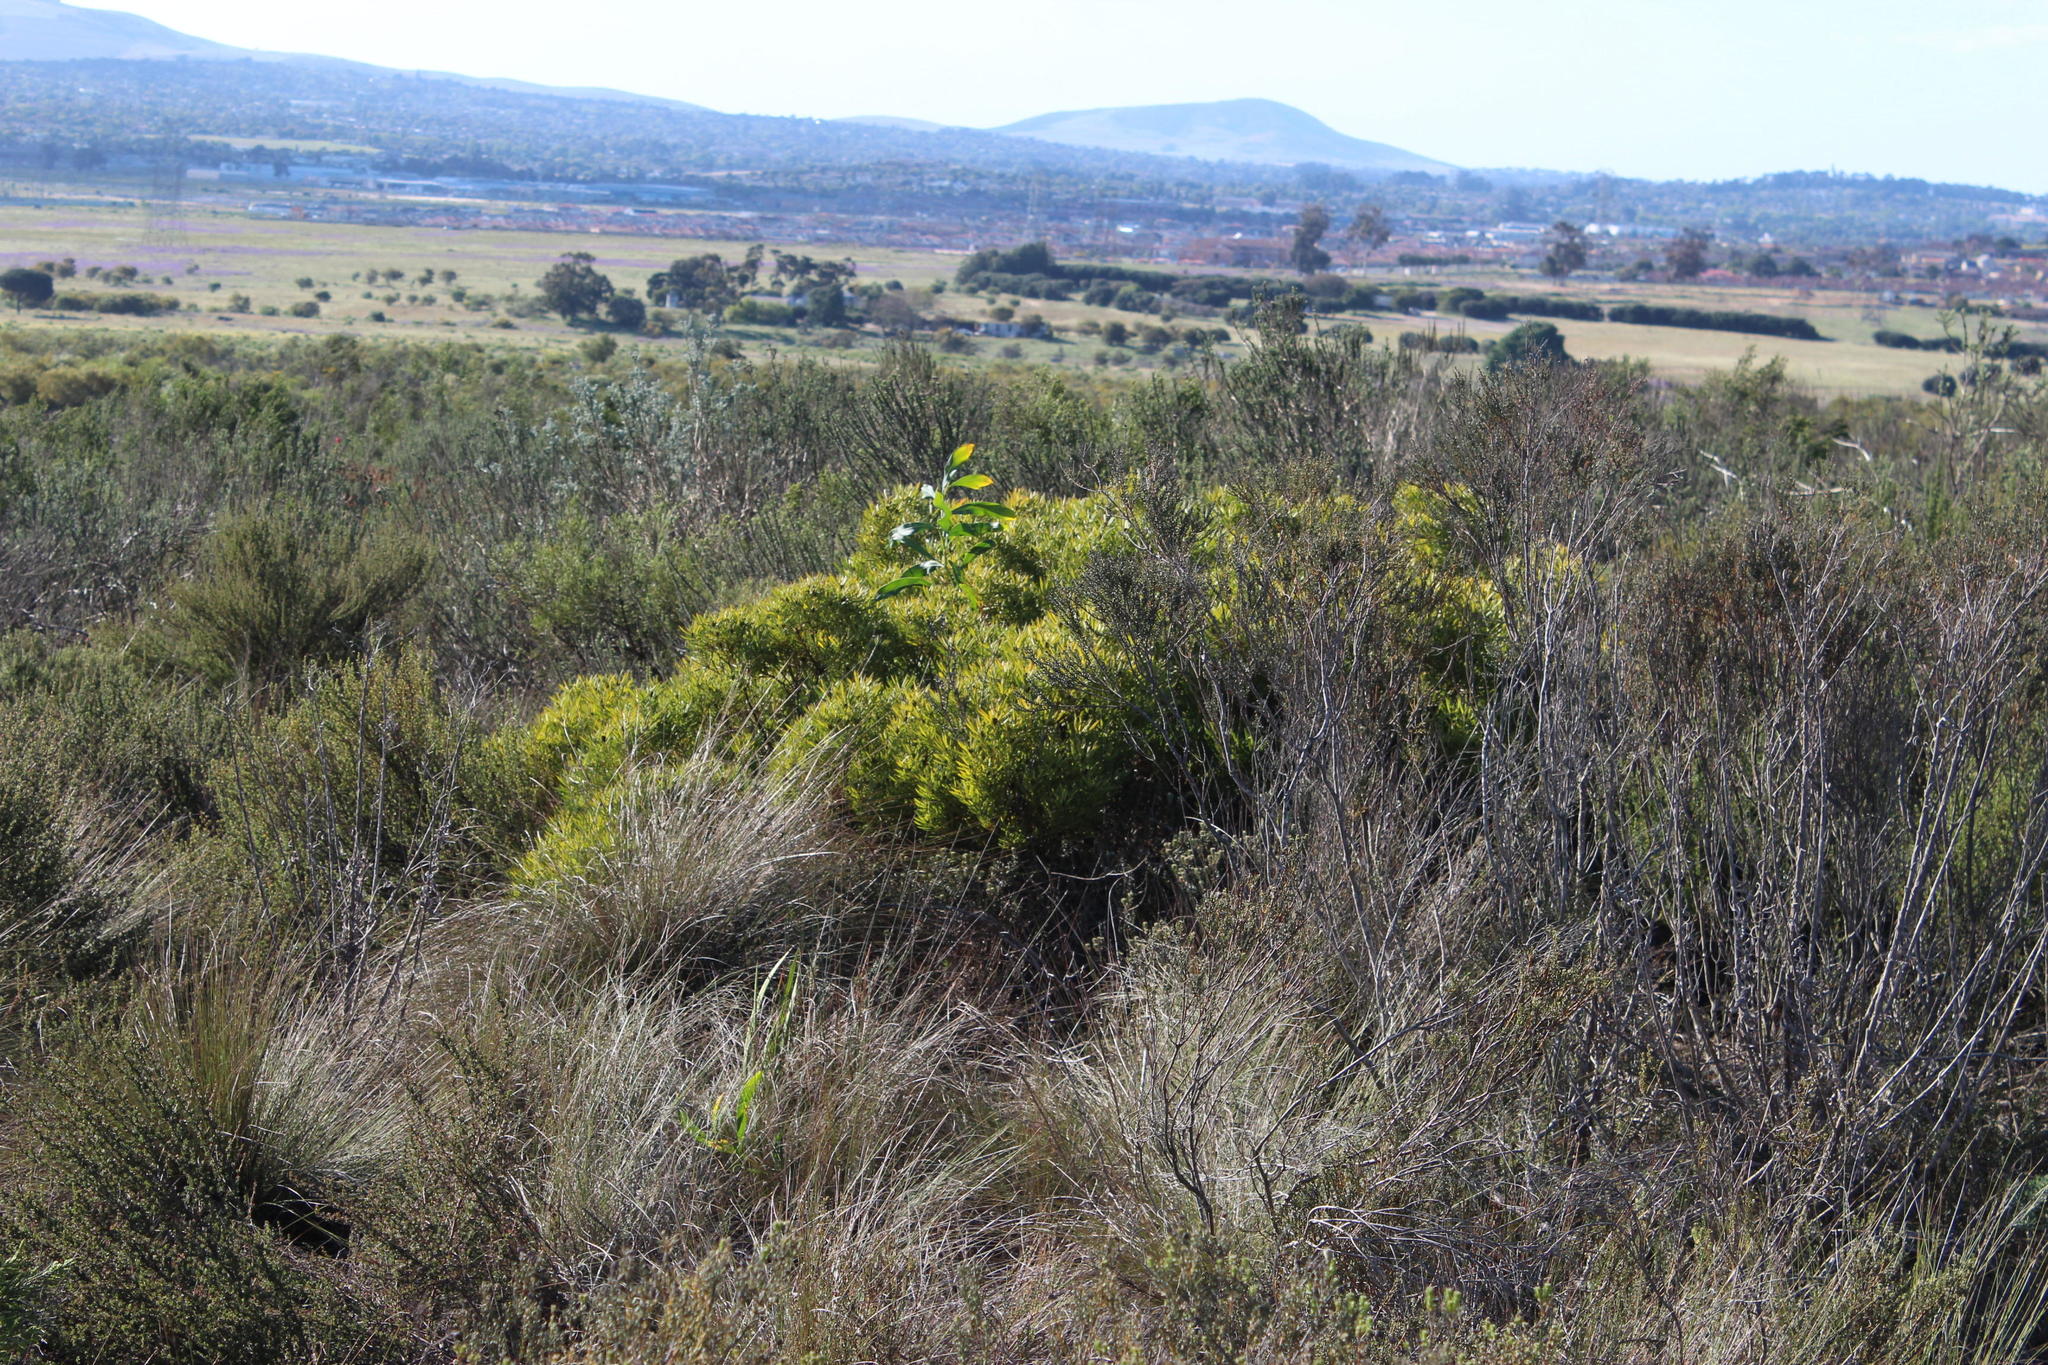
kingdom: Plantae
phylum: Tracheophyta
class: Magnoliopsida
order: Proteales
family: Proteaceae
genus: Leucadendron
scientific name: Leucadendron salignum
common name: Common sunshine conebush
